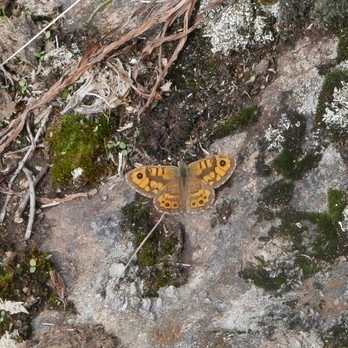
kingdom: Animalia
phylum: Arthropoda
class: Insecta
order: Lepidoptera
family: Nymphalidae
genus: Pararge
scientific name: Pararge Lasiommata megera
